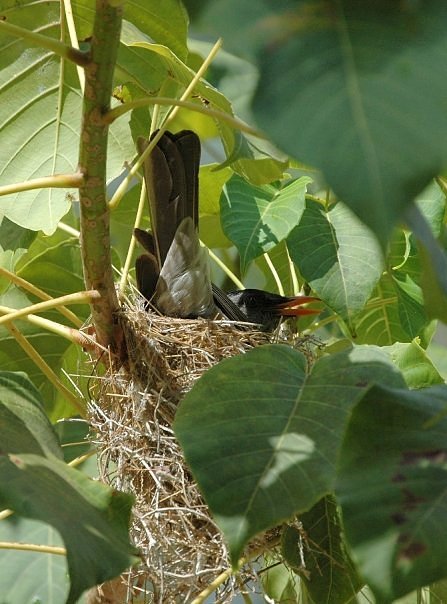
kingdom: Animalia
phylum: Chordata
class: Aves
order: Passeriformes
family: Pycnonotidae
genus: Hypsipetes
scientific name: Hypsipetes madagascariensis
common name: Malagasy bulbul
